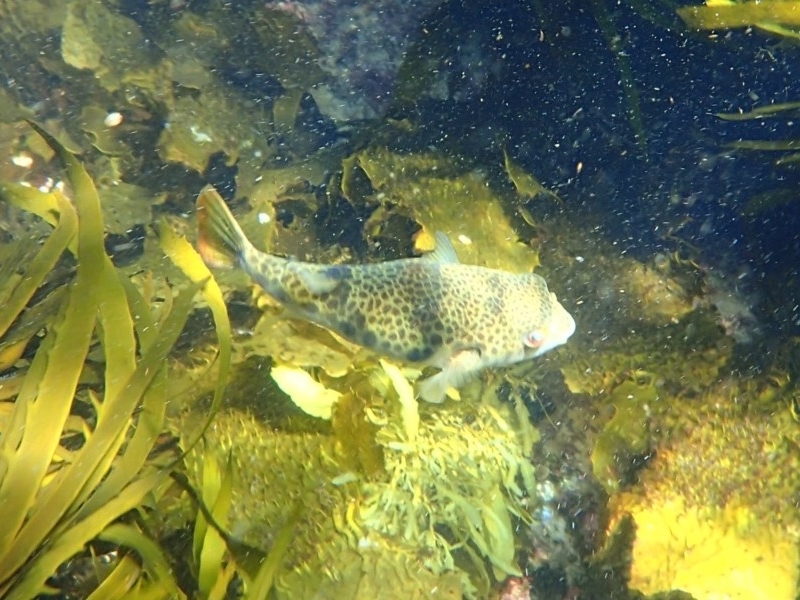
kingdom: Animalia
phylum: Chordata
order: Tetraodontiformes
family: Tetraodontidae
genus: Tetractenos
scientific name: Tetractenos glaber
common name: Smooth toadfish
